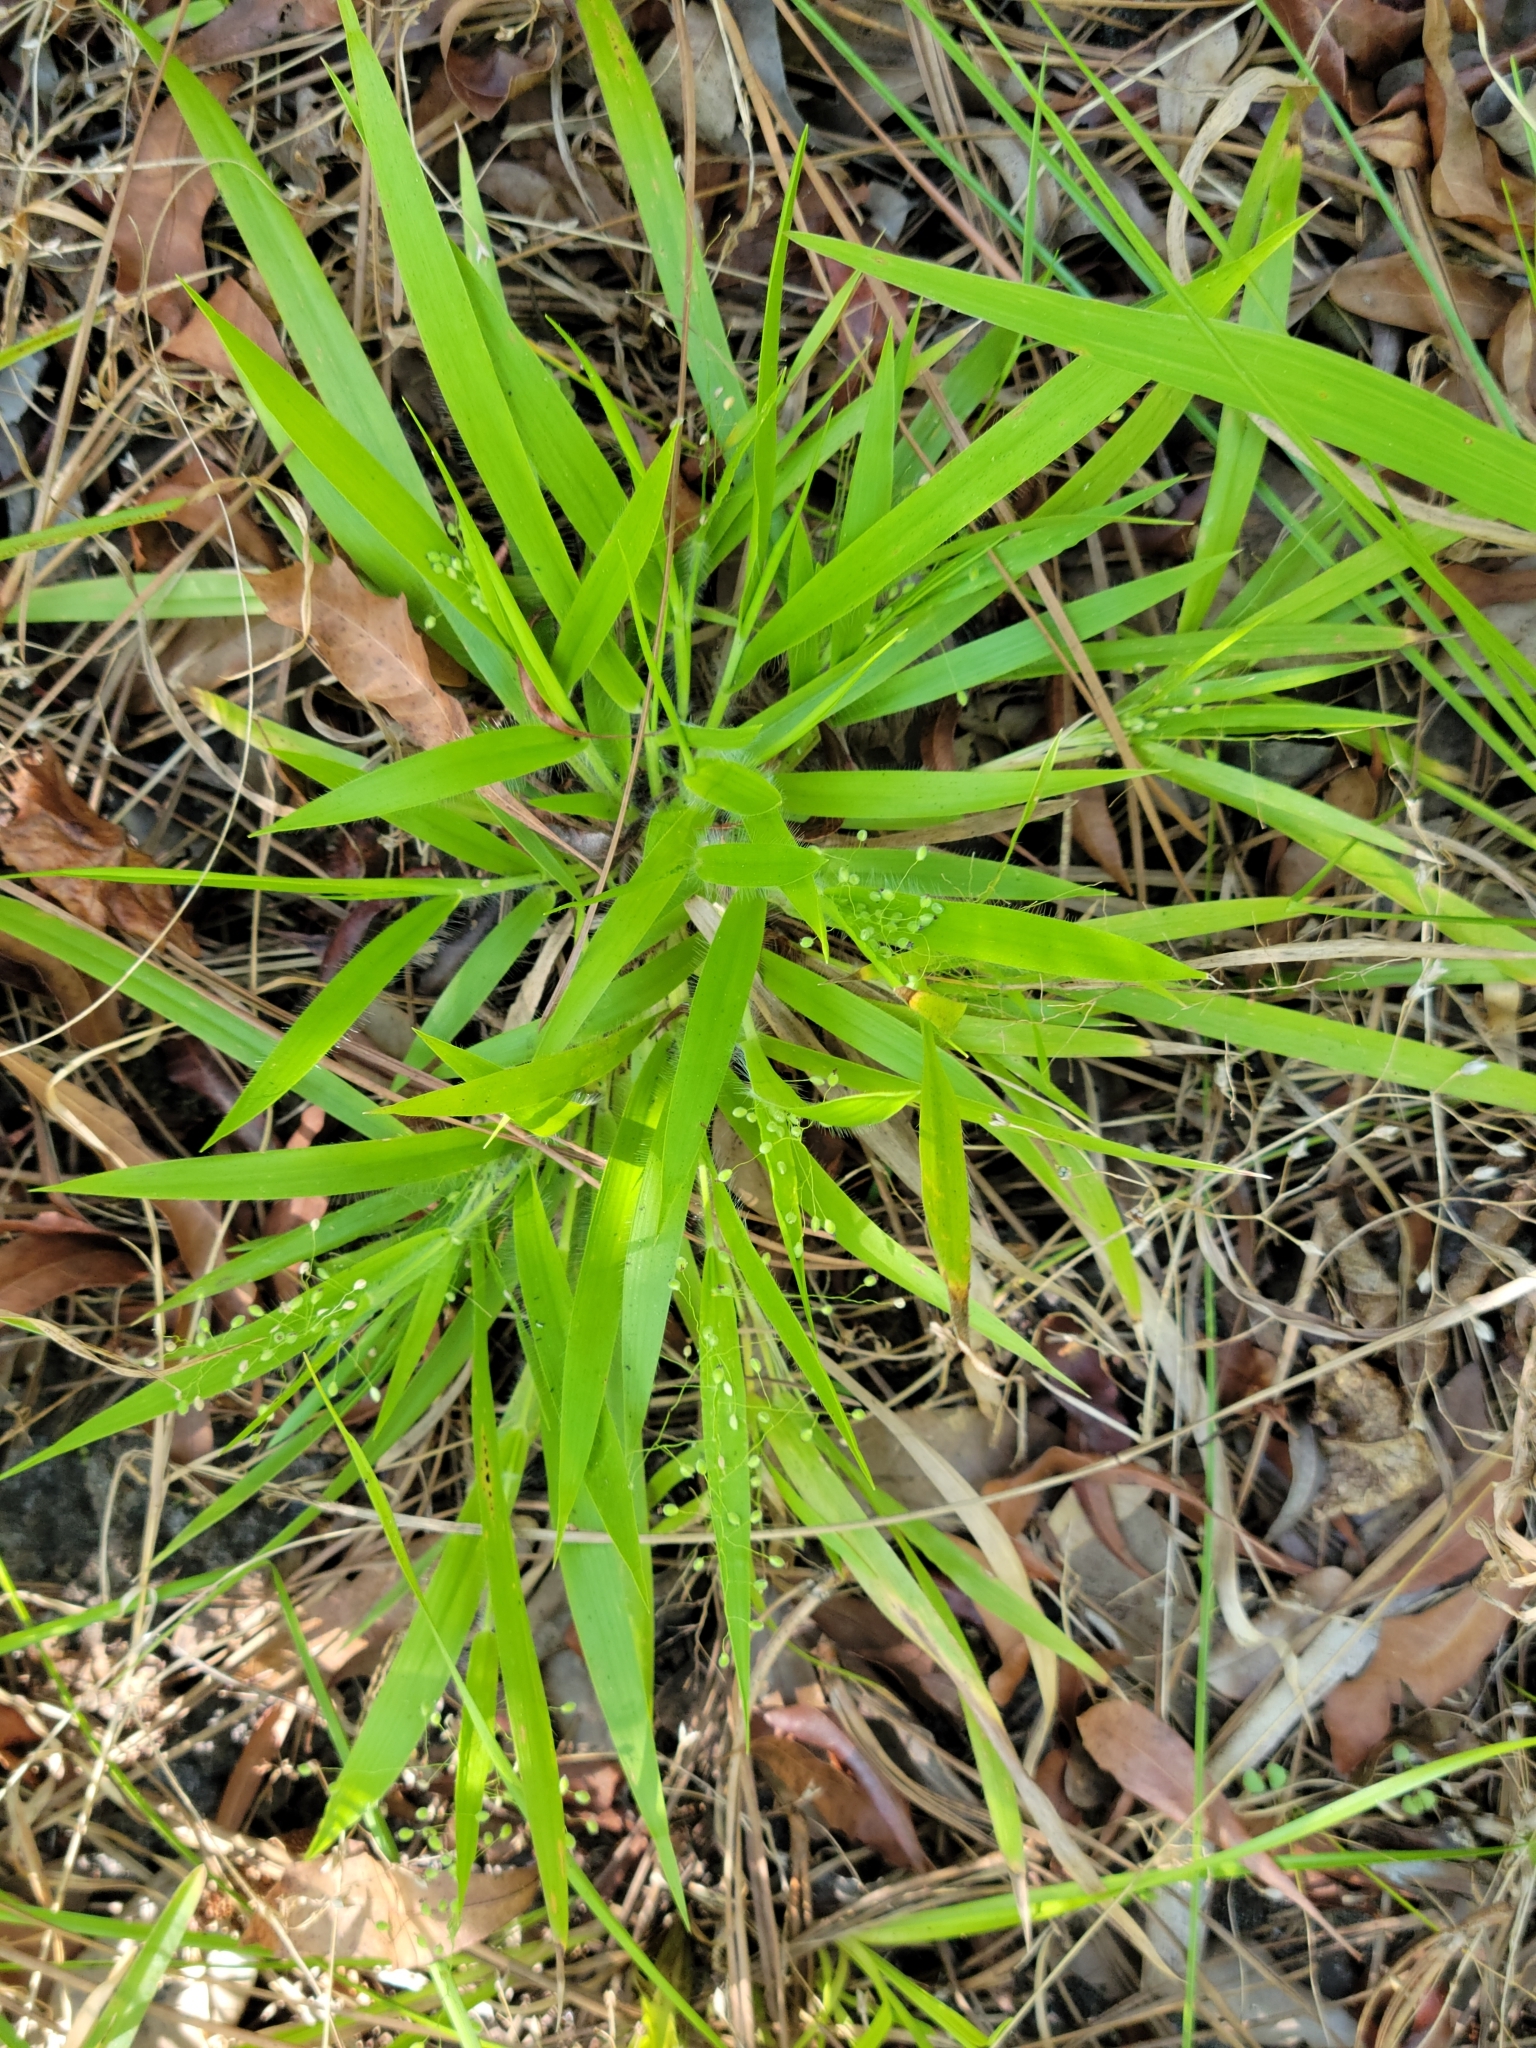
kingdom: Plantae
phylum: Tracheophyta
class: Liliopsida
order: Poales
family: Poaceae
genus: Dichanthelium
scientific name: Dichanthelium laxiflorum
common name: Soft-tuft panic grass
